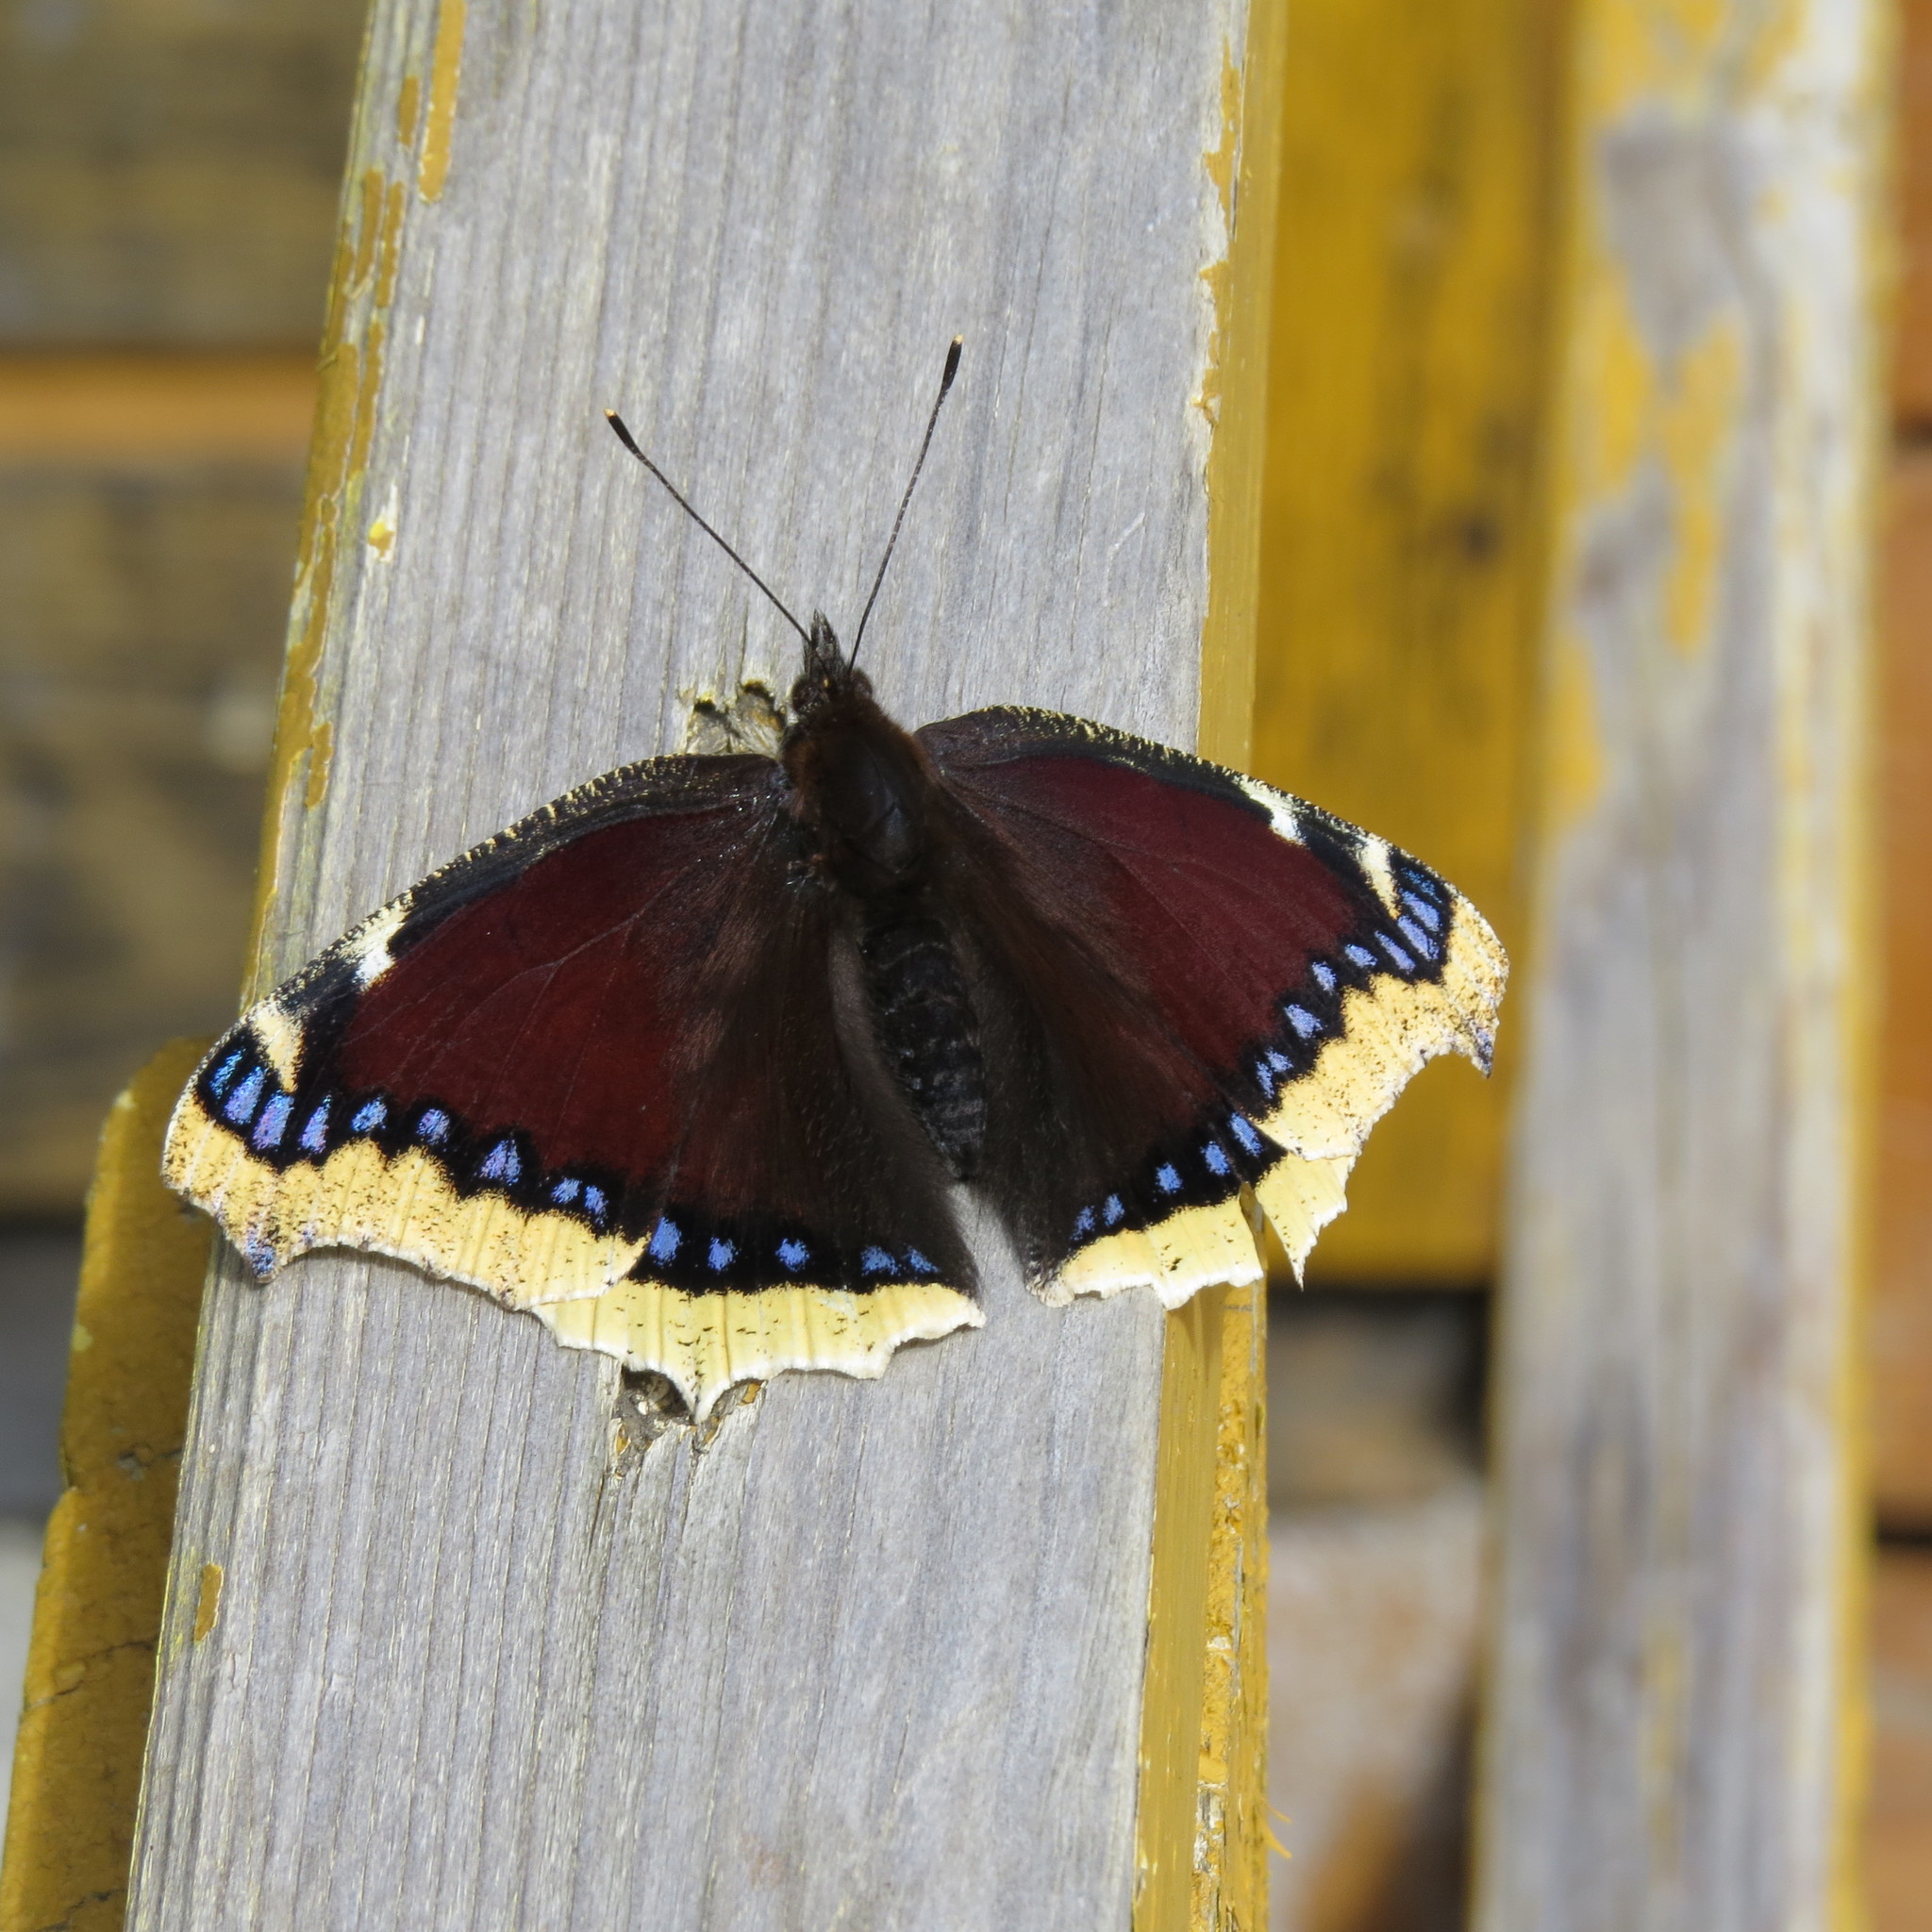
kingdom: Animalia
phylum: Arthropoda
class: Insecta
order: Lepidoptera
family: Nymphalidae
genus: Nymphalis
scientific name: Nymphalis antiopa
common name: Camberwell beauty
